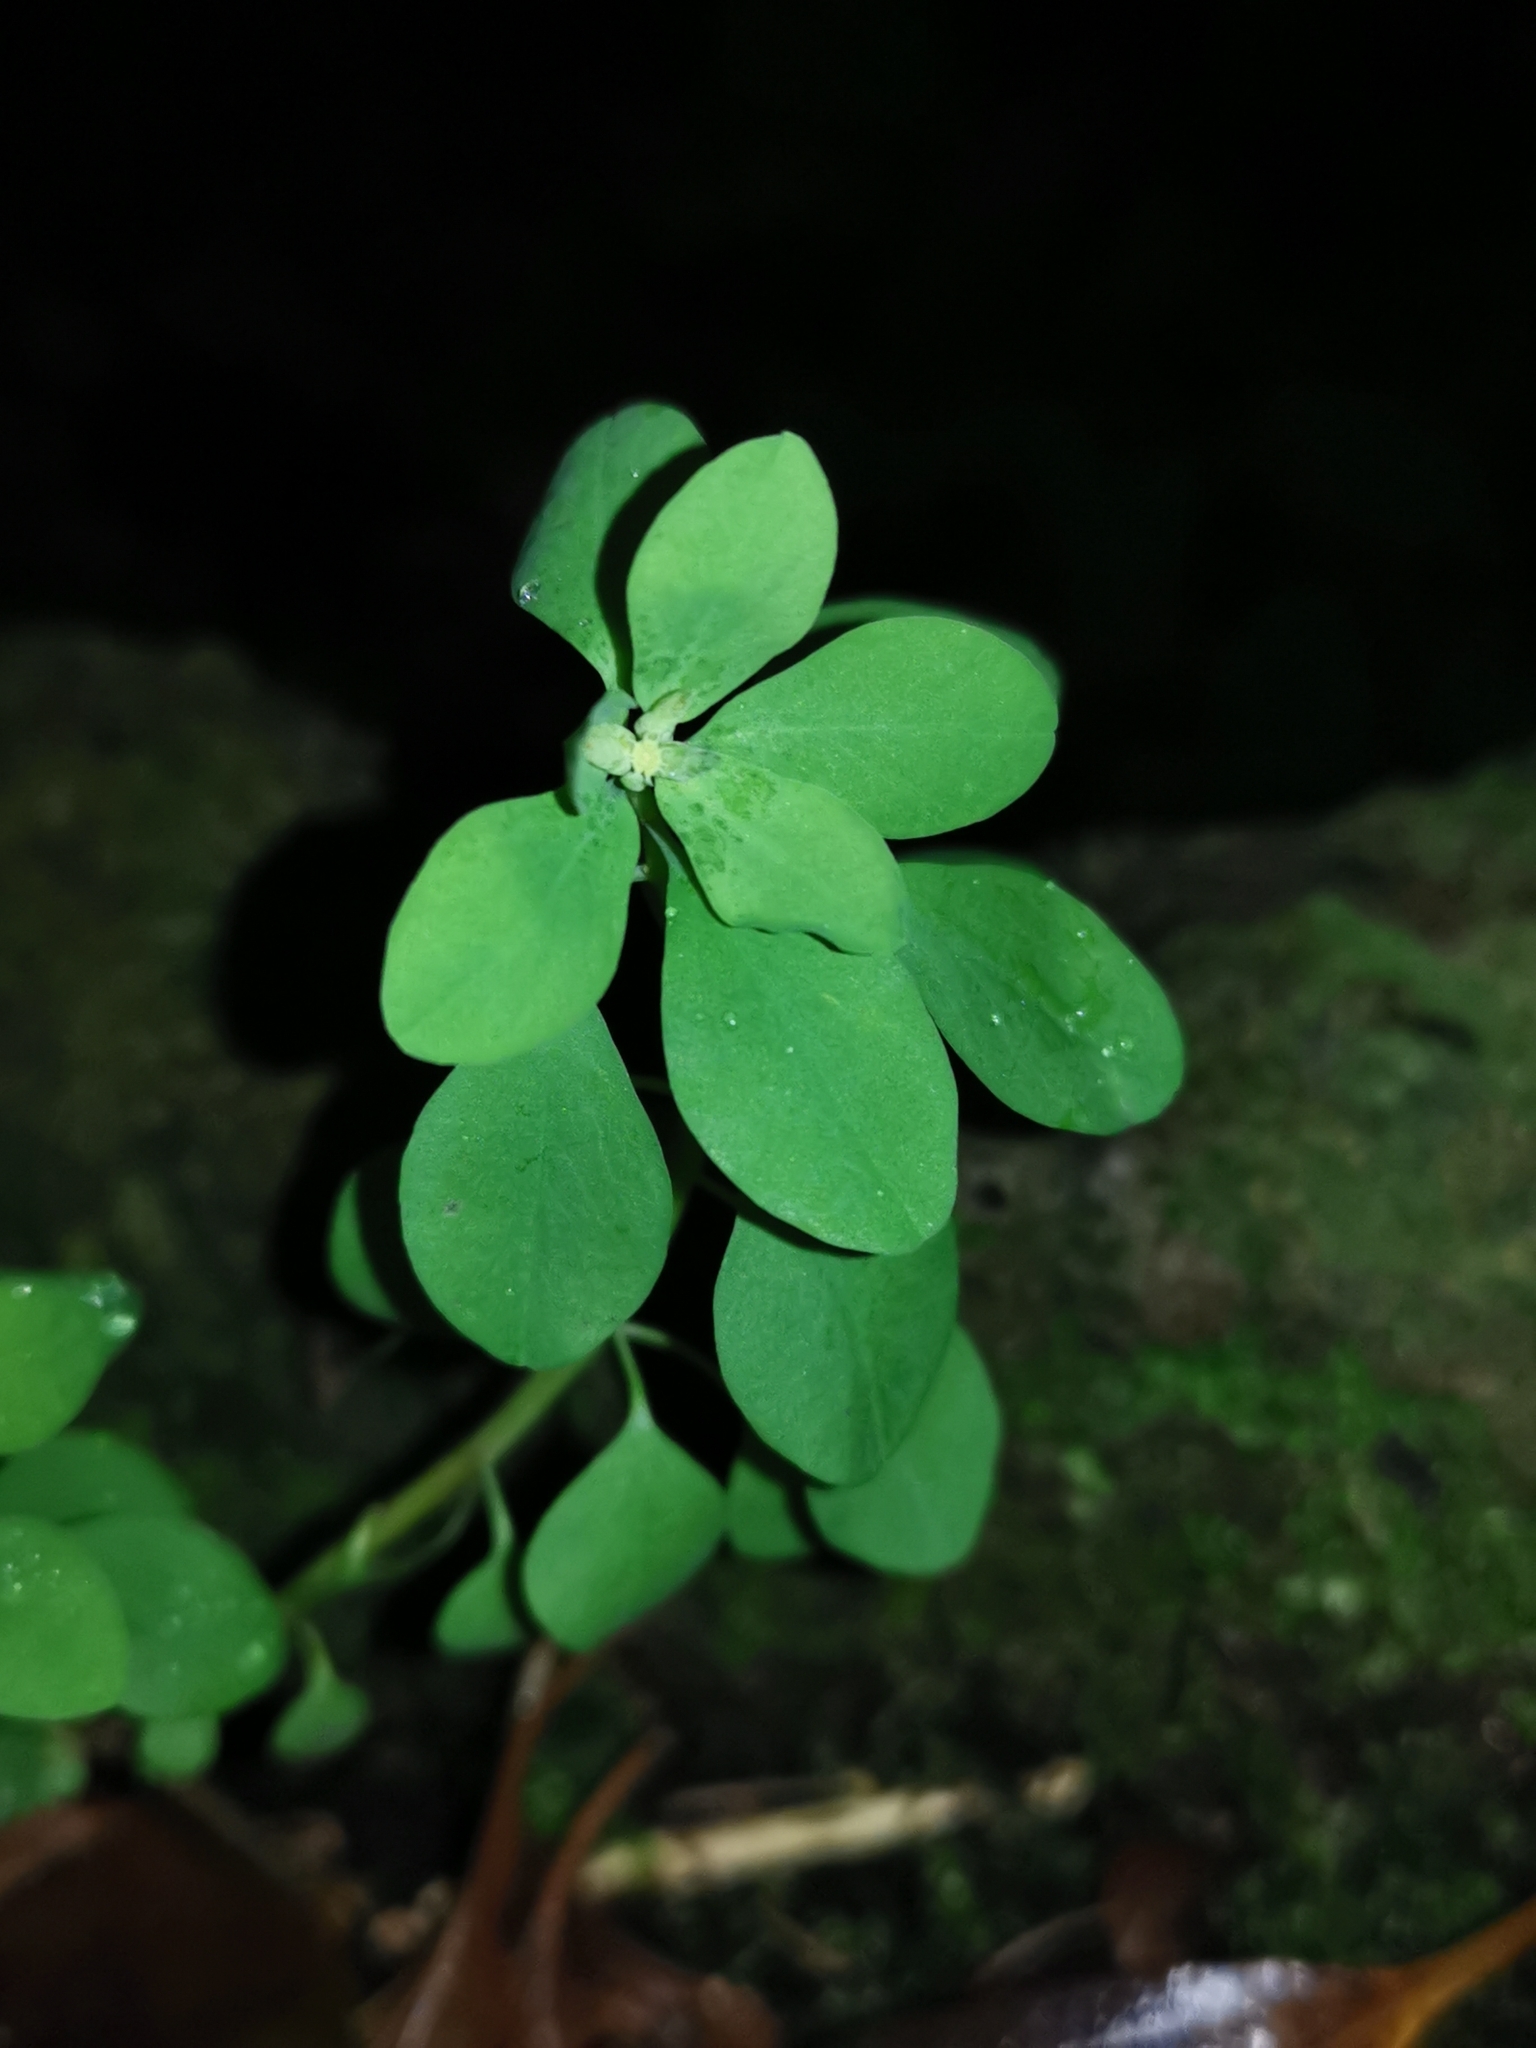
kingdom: Plantae
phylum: Tracheophyta
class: Magnoliopsida
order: Malpighiales
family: Euphorbiaceae
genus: Euphorbia
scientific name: Euphorbia peplus
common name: Petty spurge
